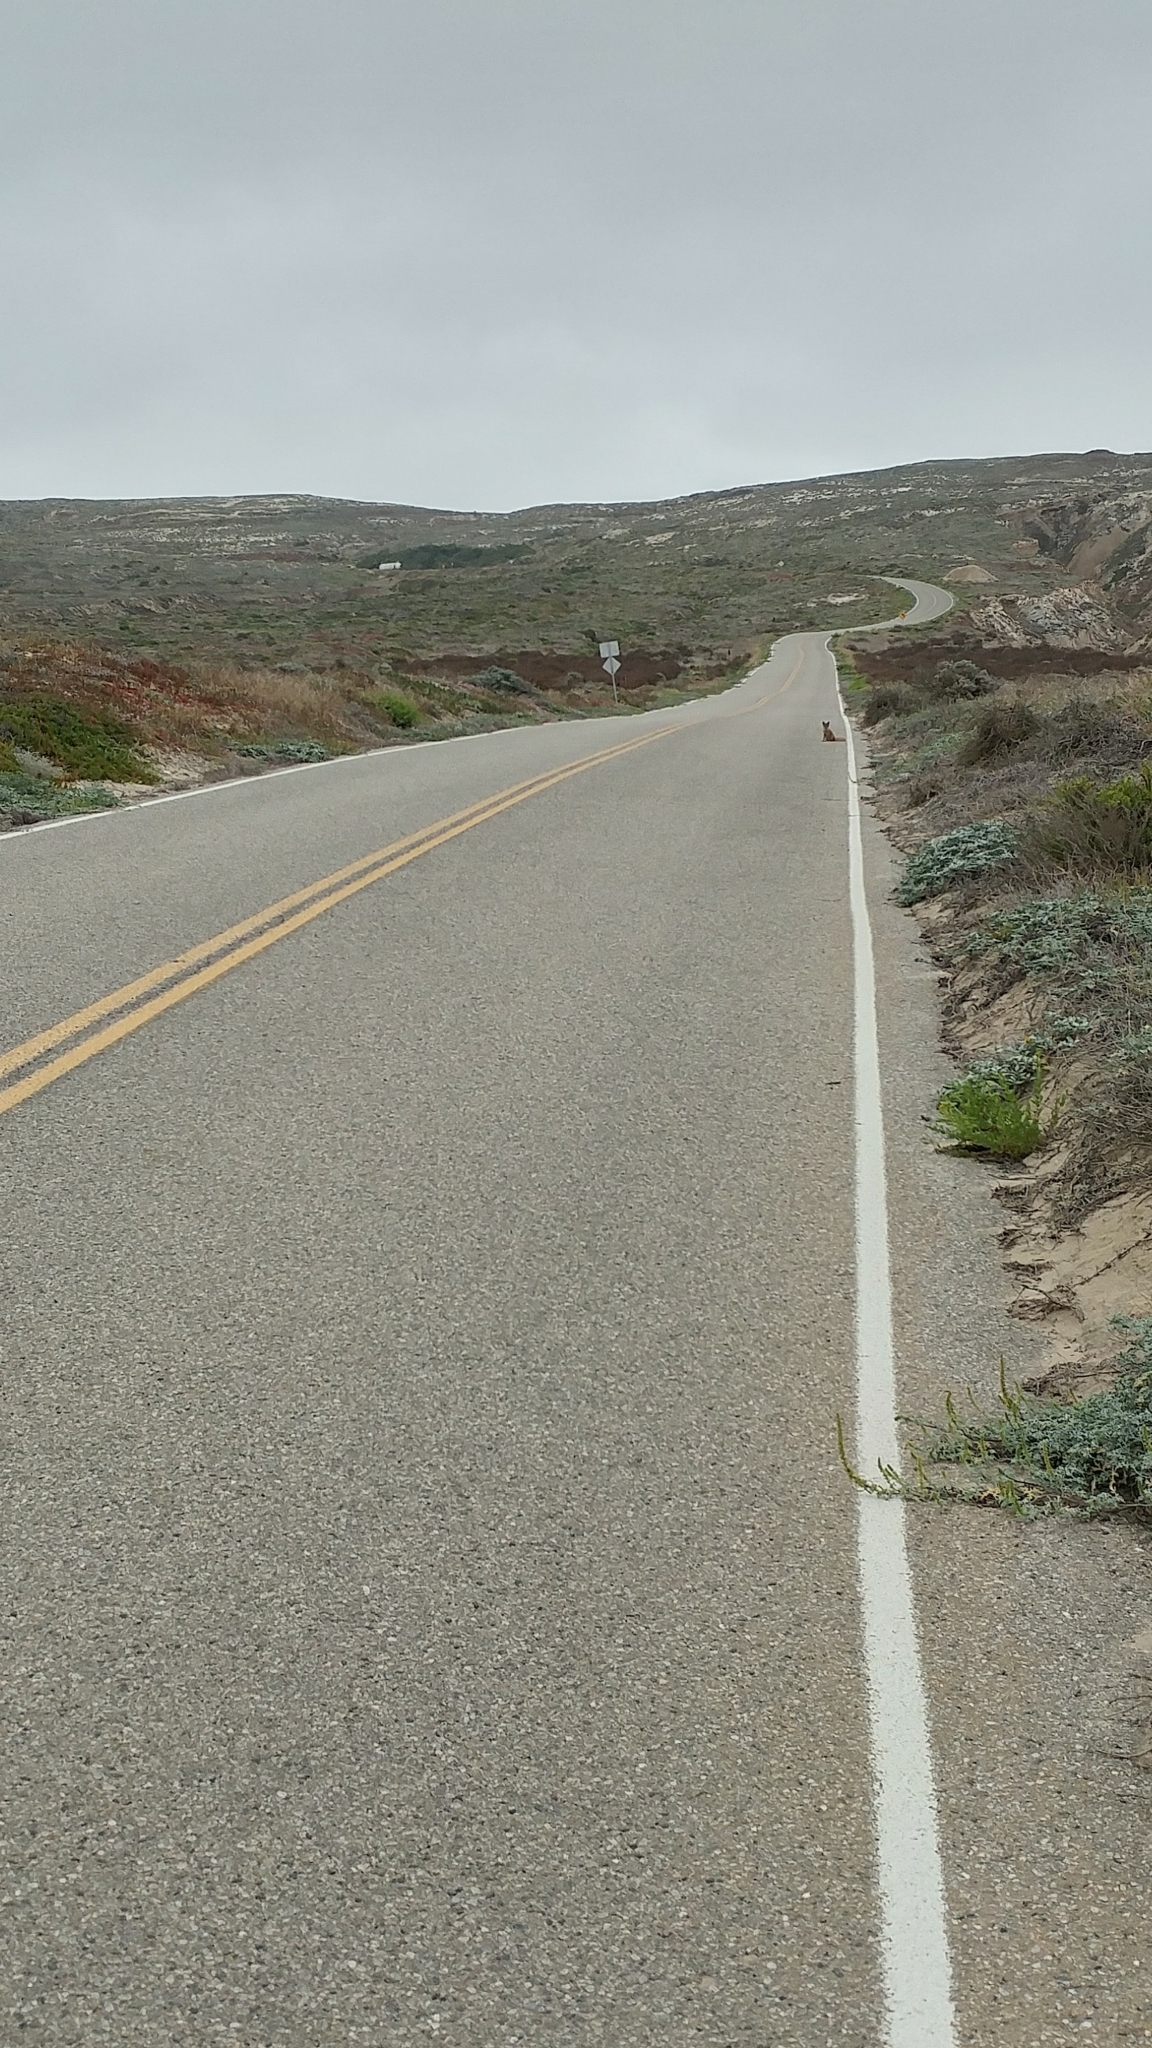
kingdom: Animalia
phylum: Chordata
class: Mammalia
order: Carnivora
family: Canidae
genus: Urocyon
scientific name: Urocyon littoralis
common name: Island gray fox
